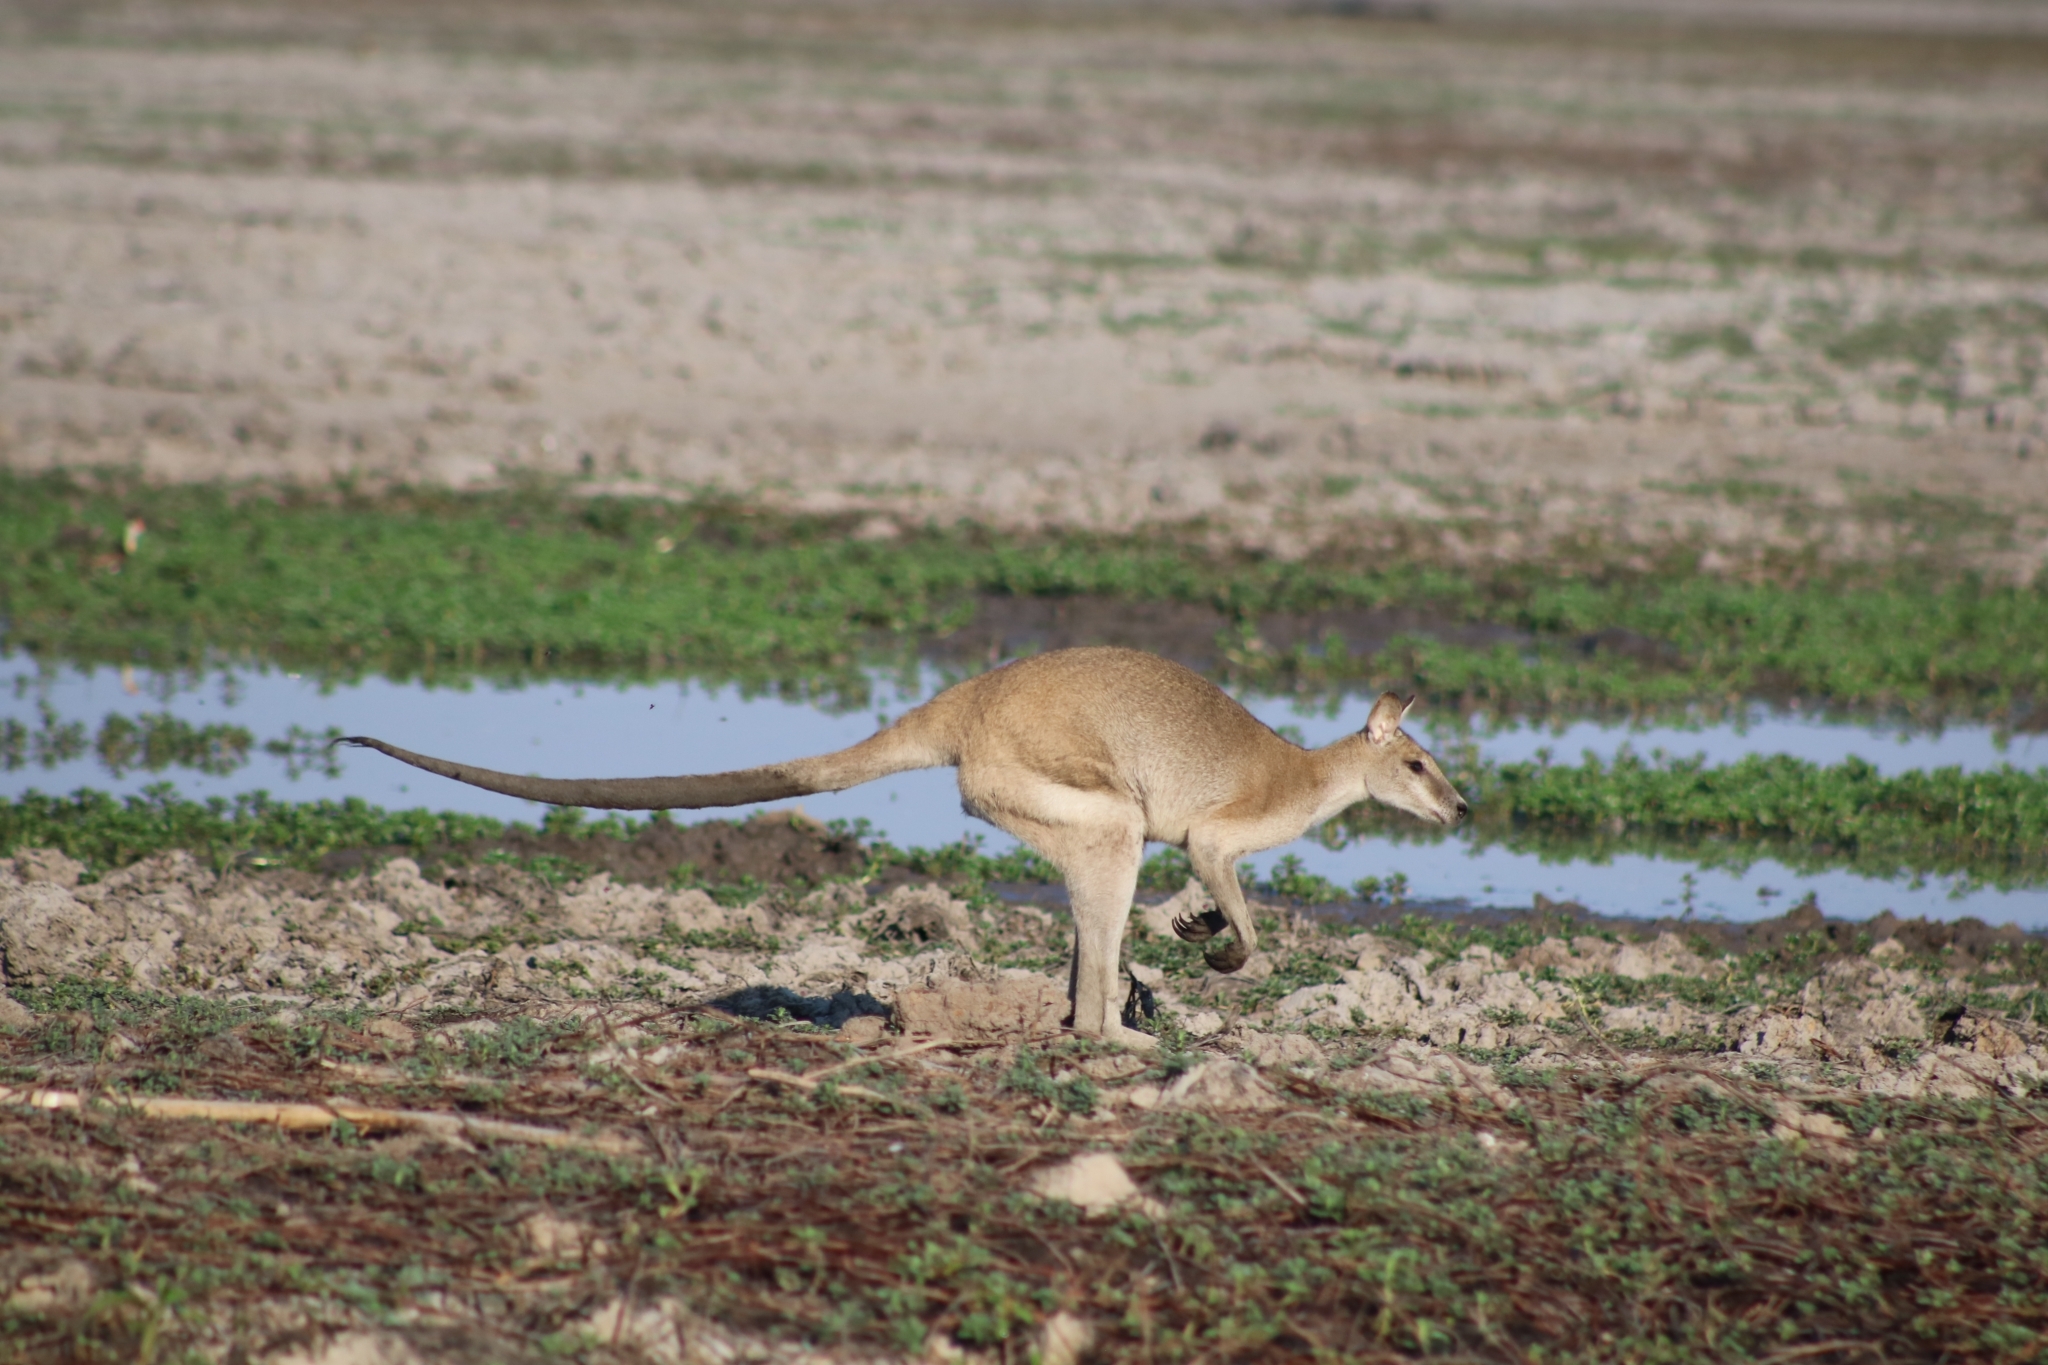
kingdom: Animalia
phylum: Chordata
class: Mammalia
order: Diprotodontia
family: Macropodidae
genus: Macropus
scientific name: Macropus agilis
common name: Agile wallaby
